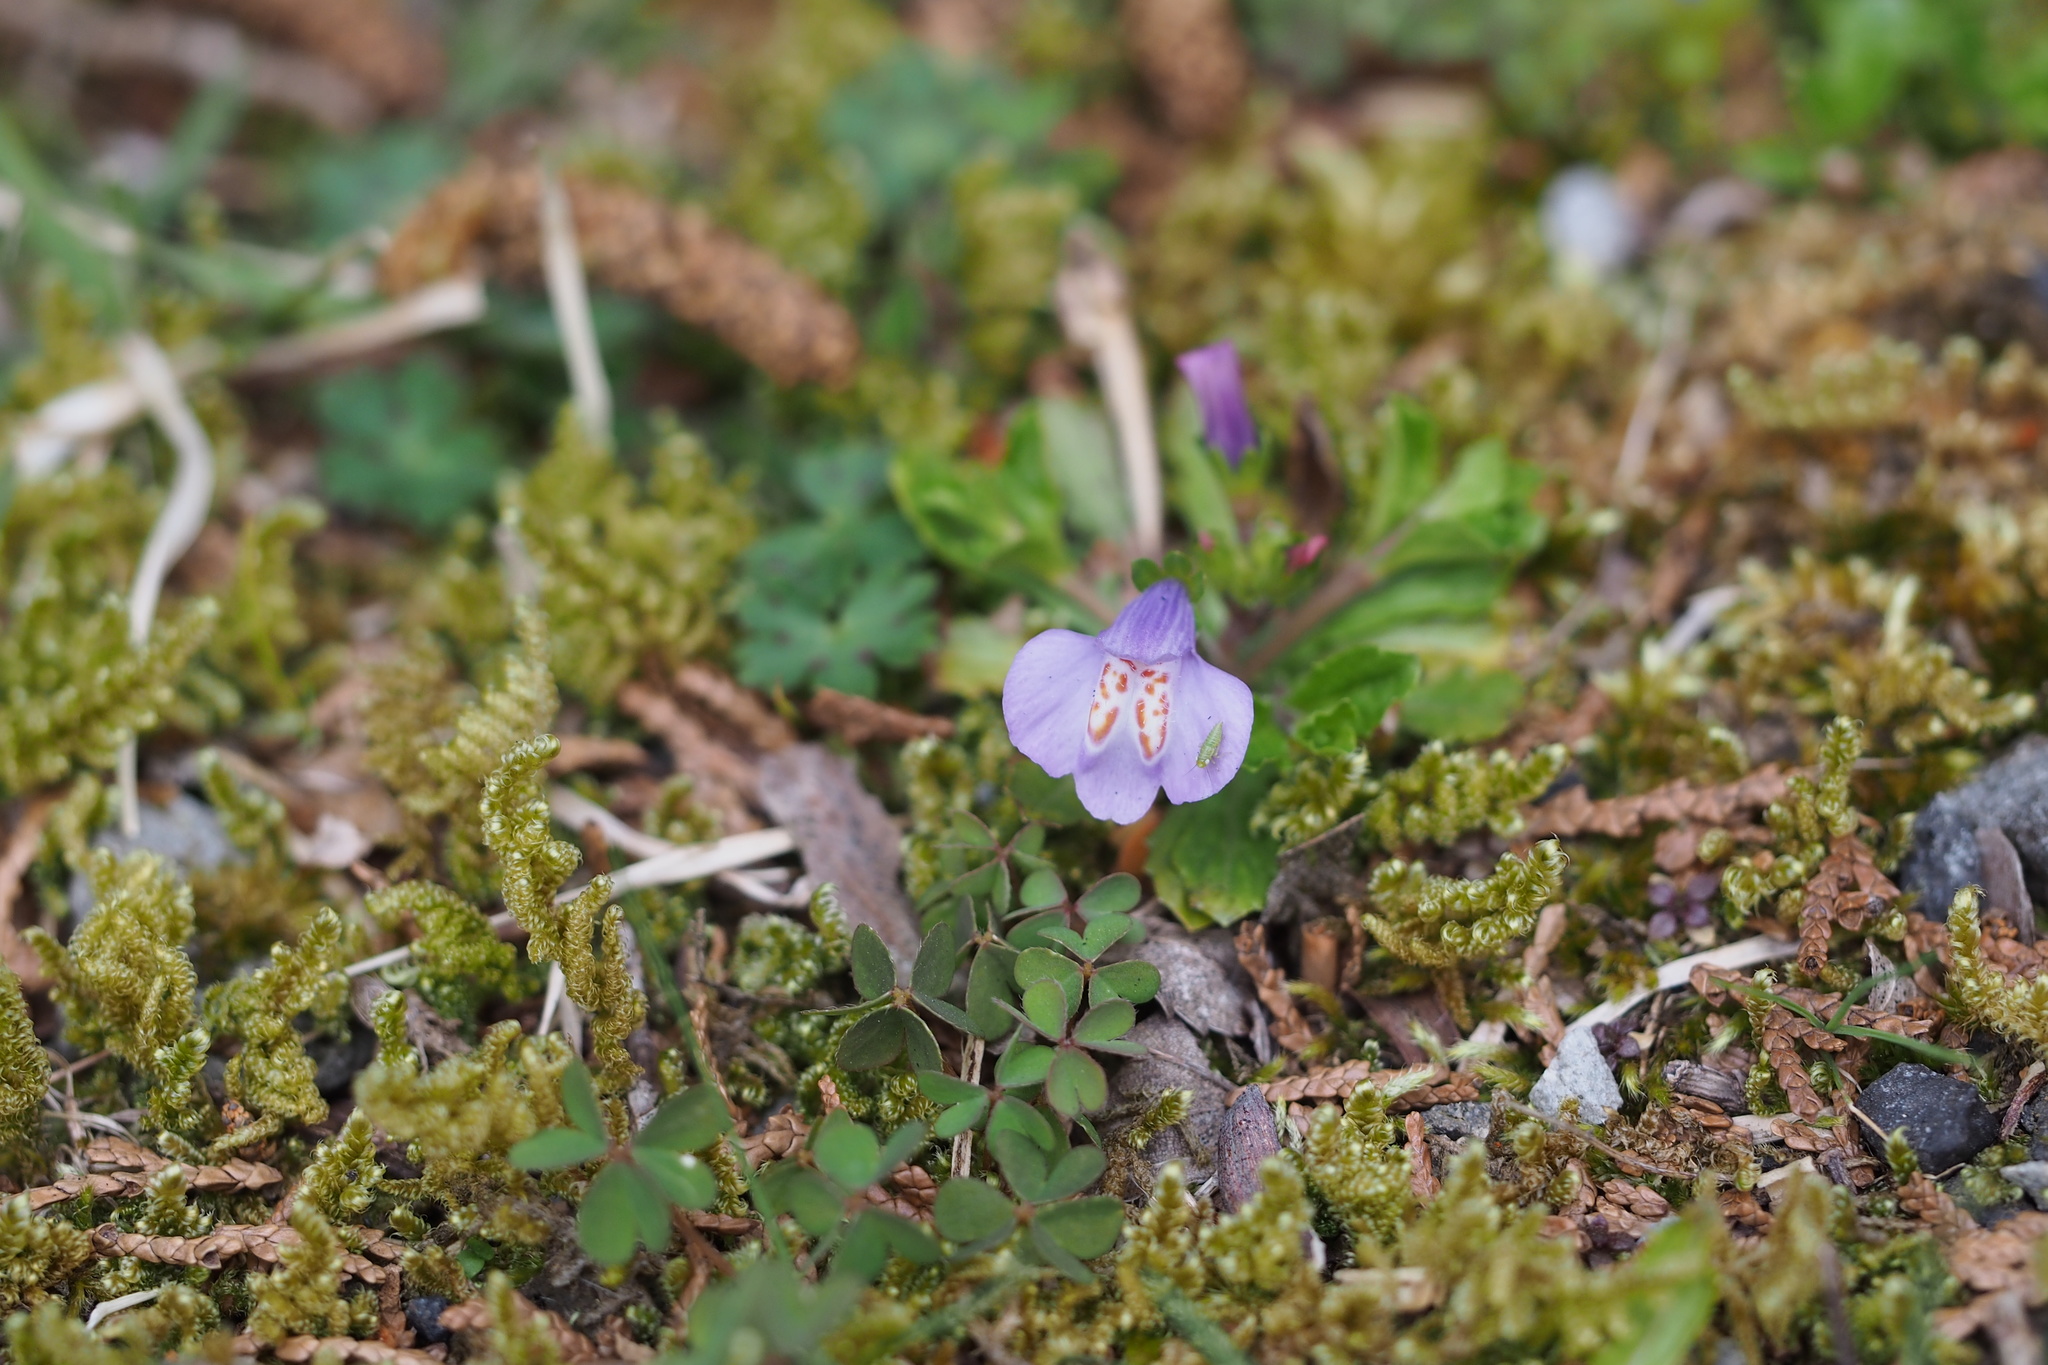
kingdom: Plantae
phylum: Tracheophyta
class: Magnoliopsida
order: Lamiales
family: Mazaceae
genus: Mazus
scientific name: Mazus miquelii
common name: Miquel's mazus
